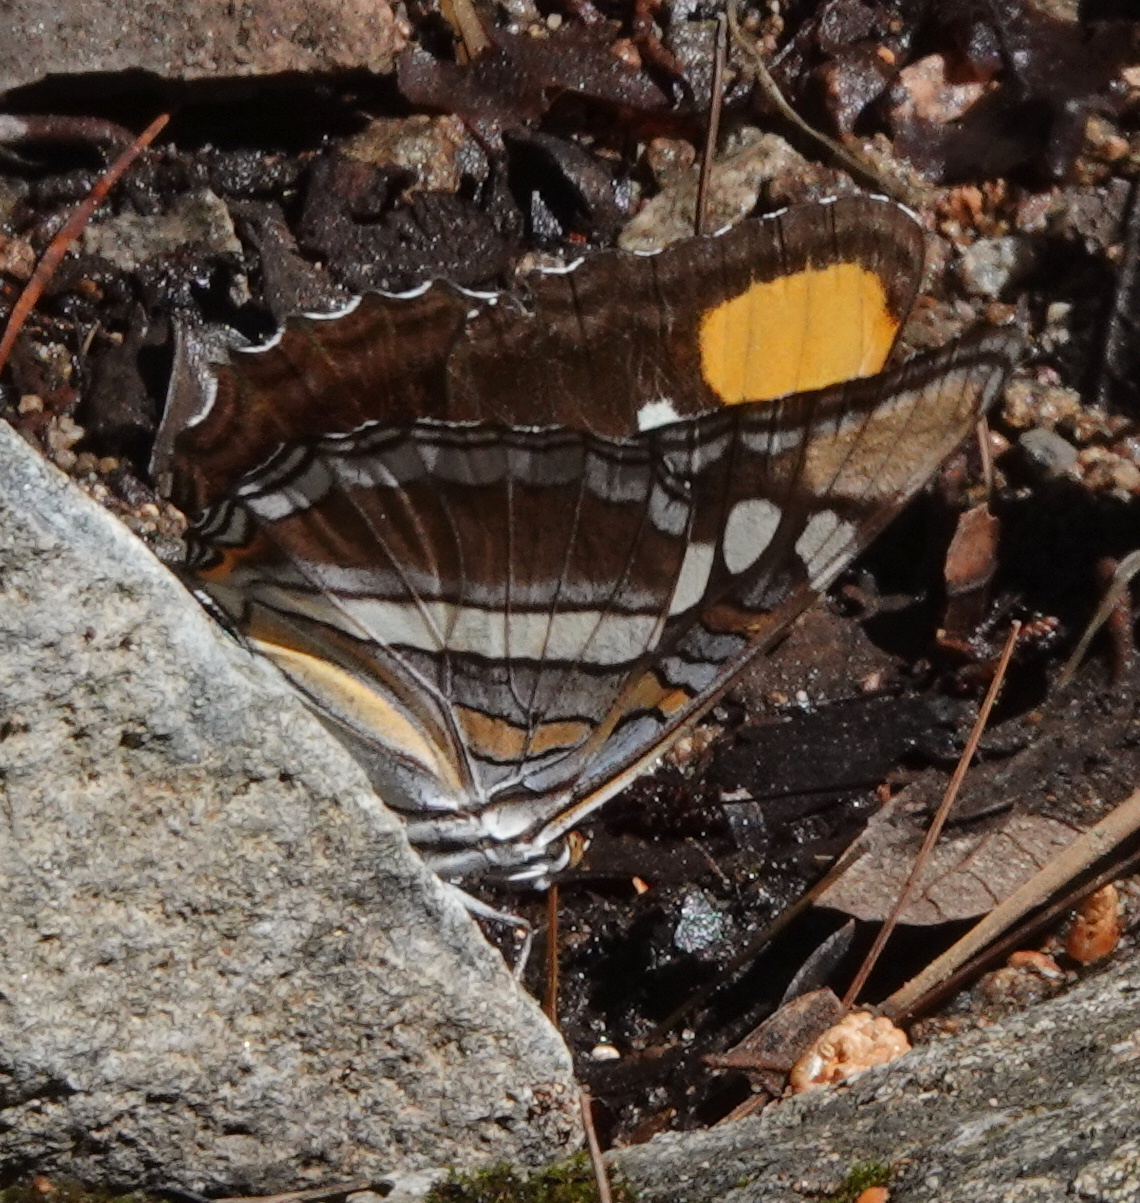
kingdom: Animalia
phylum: Arthropoda
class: Insecta
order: Lepidoptera
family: Nymphalidae
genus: Limenitis
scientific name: Limenitis bredowii
